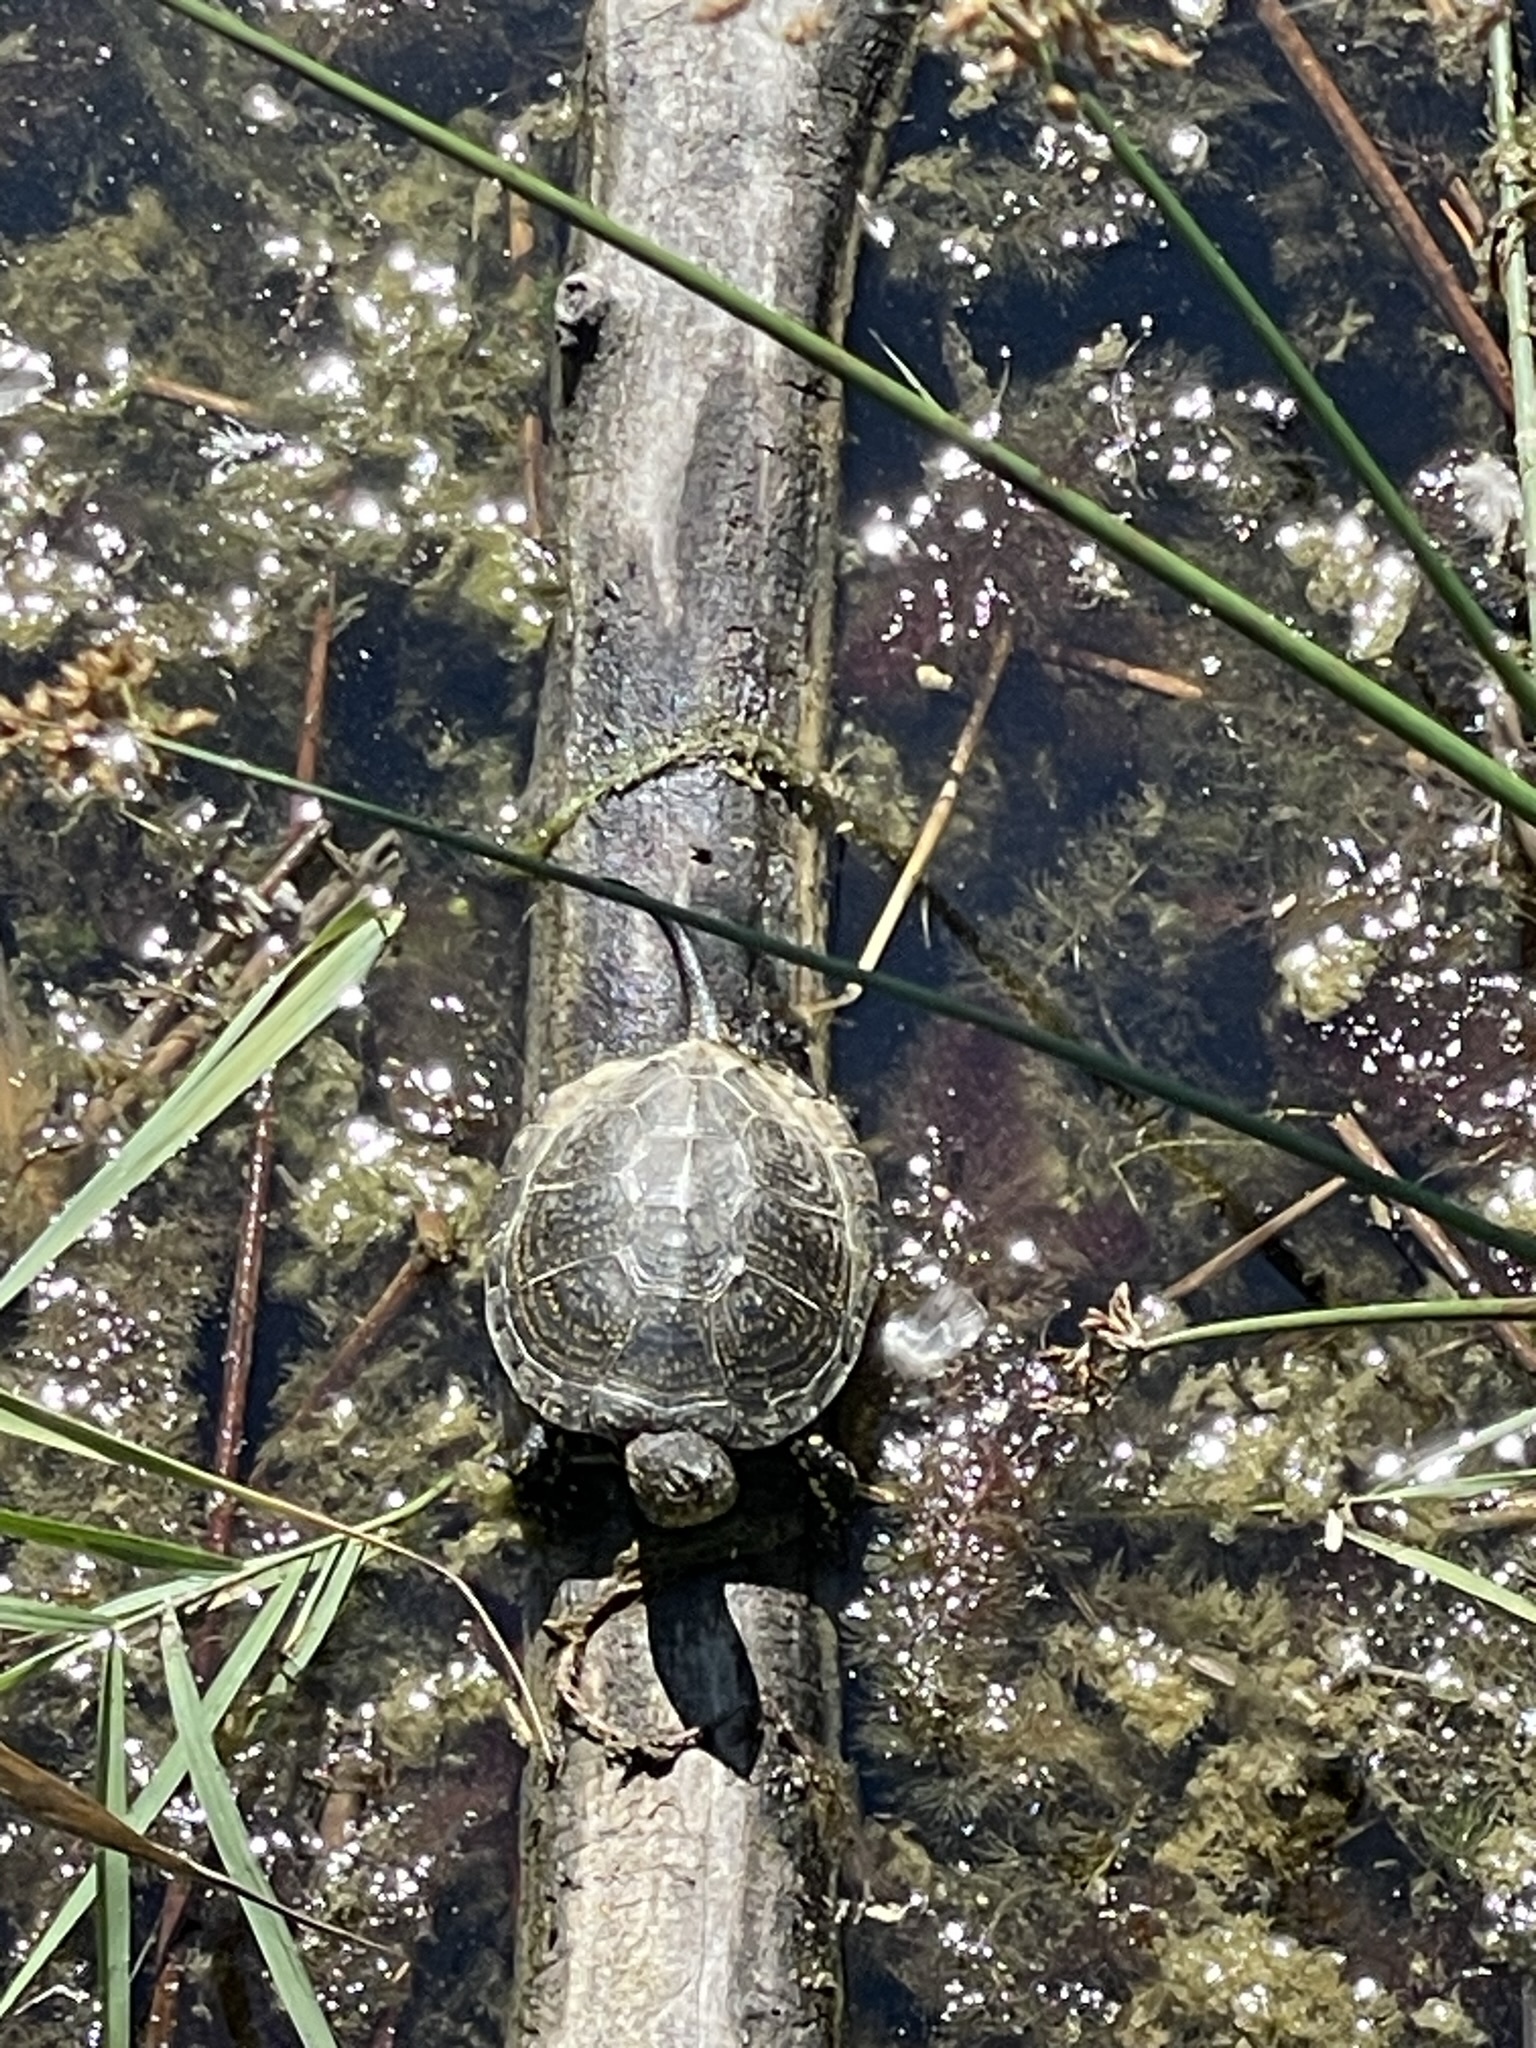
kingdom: Animalia
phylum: Chordata
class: Testudines
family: Emydidae
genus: Emys
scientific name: Emys orbicularis
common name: European pond turtle
